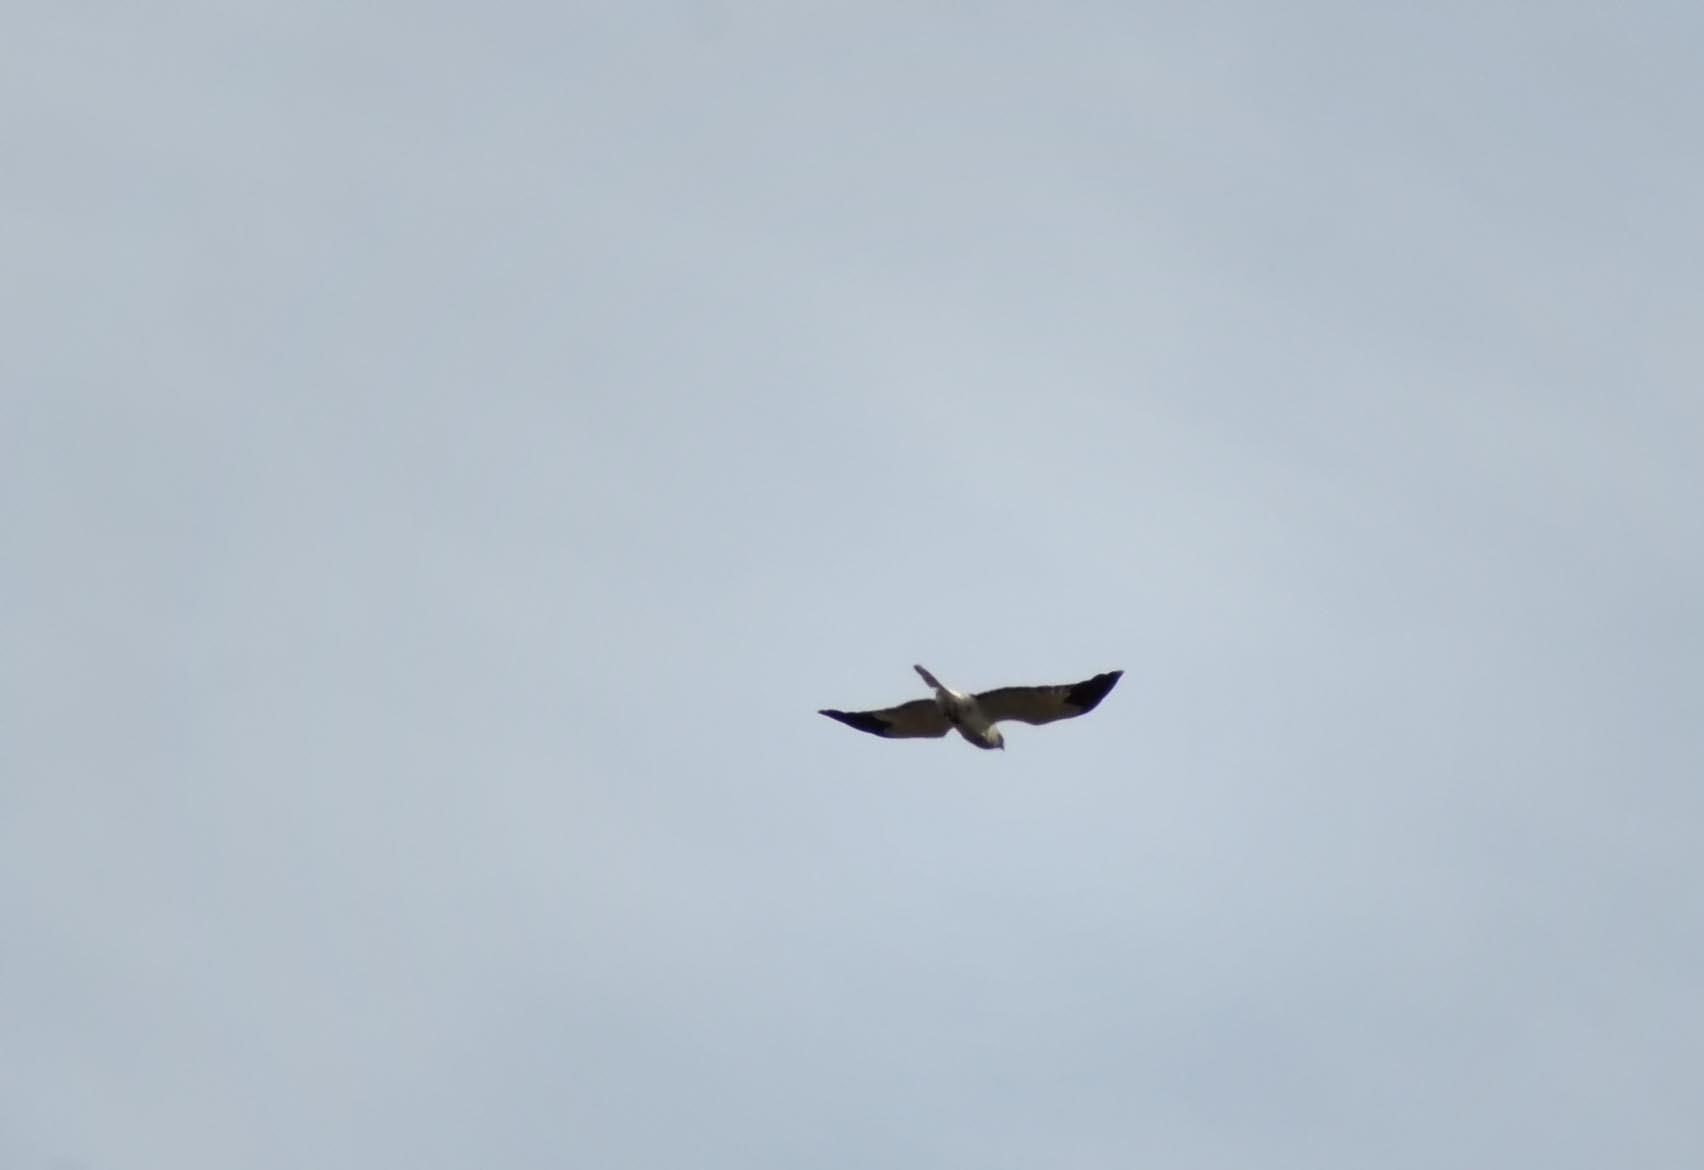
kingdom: Animalia
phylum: Chordata
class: Aves
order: Accipitriformes
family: Accipitridae
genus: Circus
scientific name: Circus cyaneus
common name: Hen harrier
